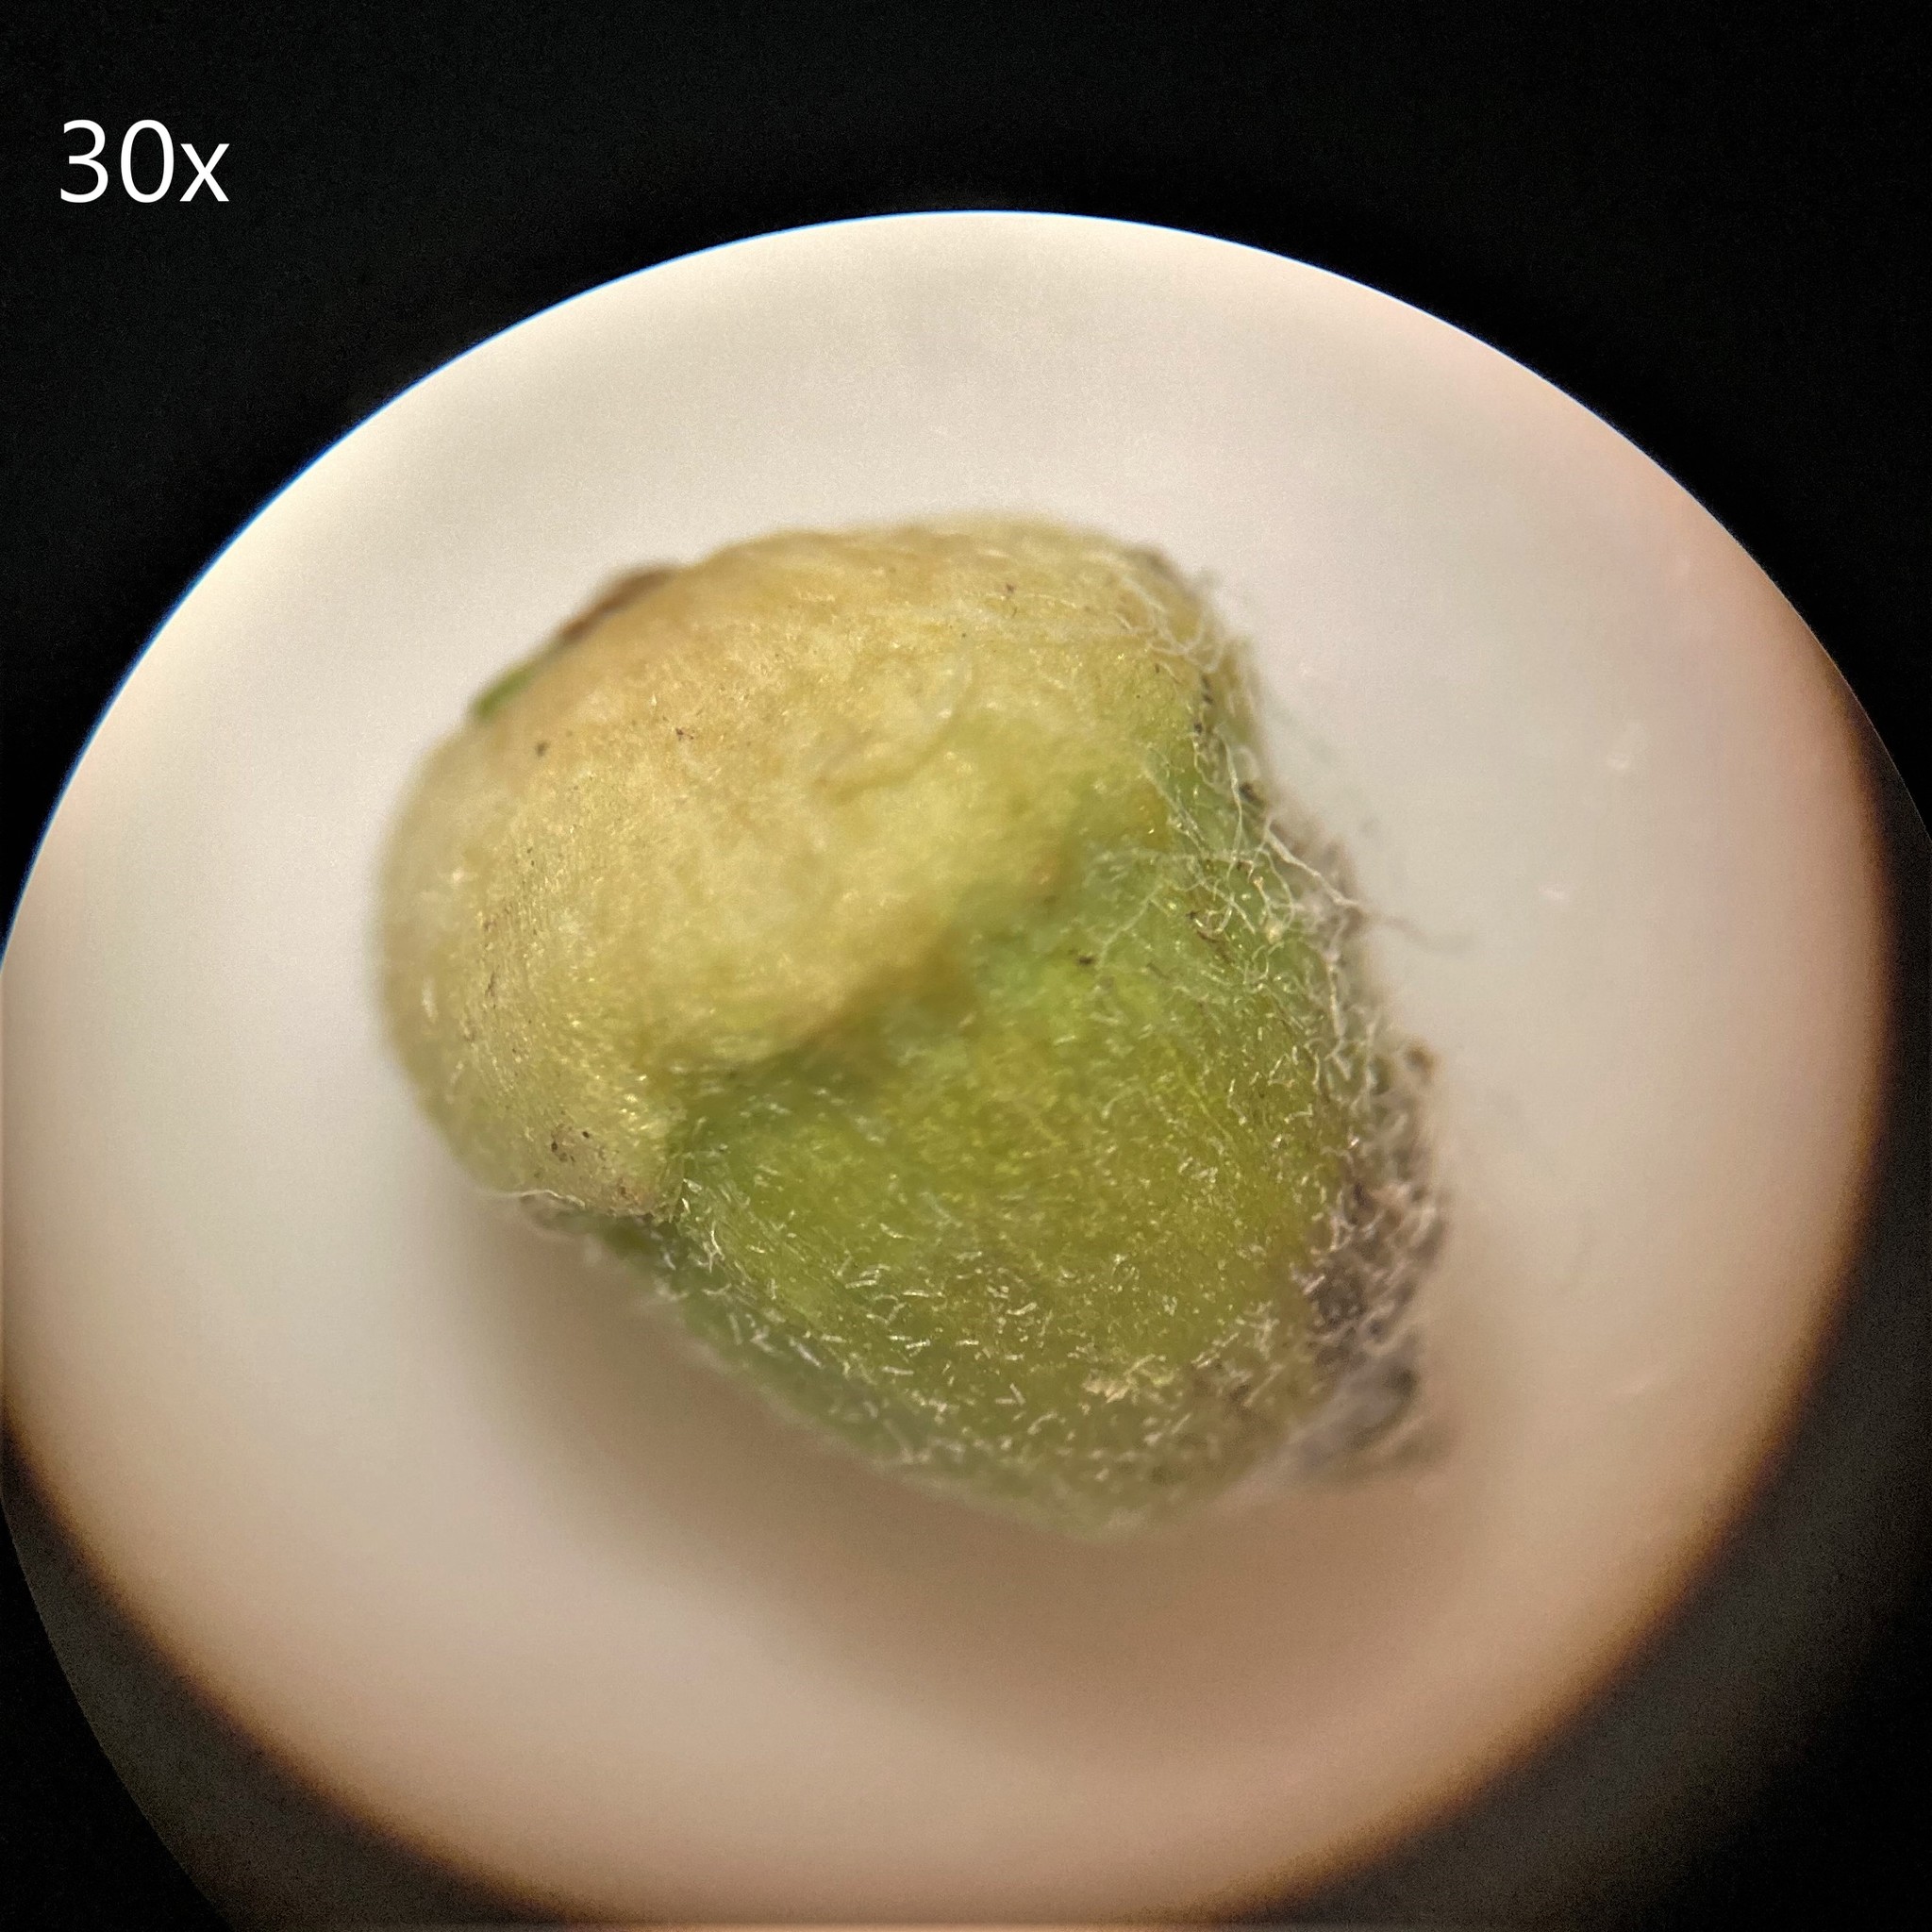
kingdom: Animalia
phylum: Arthropoda
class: Insecta
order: Diptera
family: Cecidomyiidae
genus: Celticecis
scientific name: Celticecis globosa
